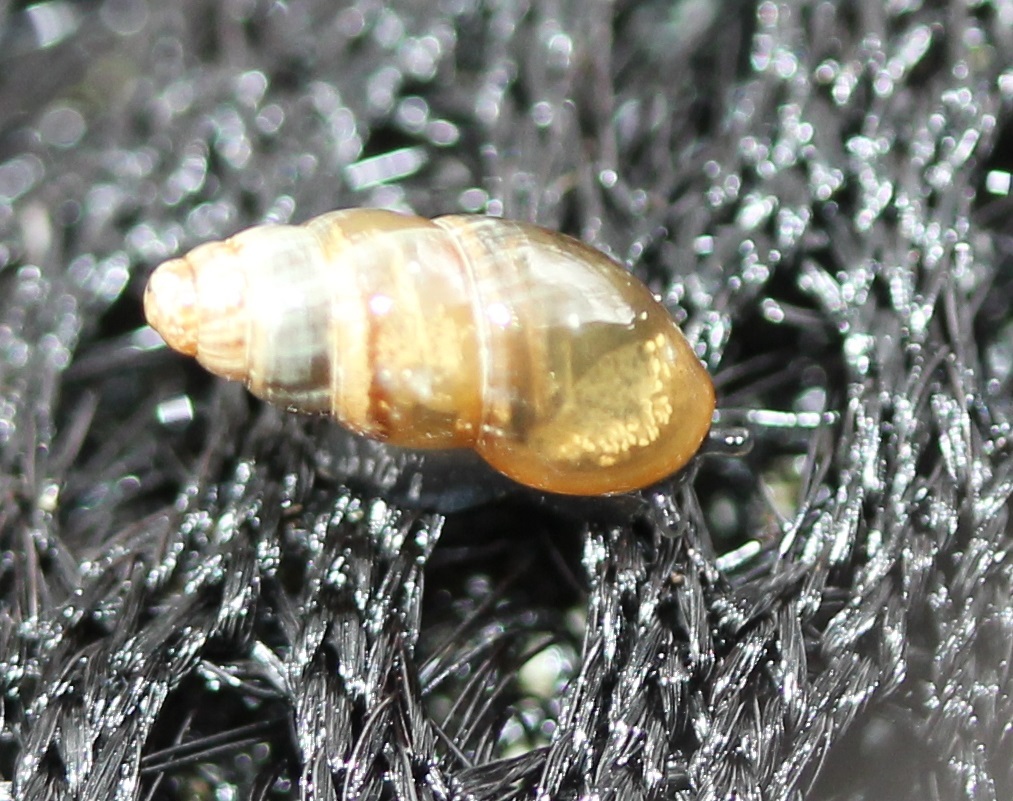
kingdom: Animalia
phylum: Mollusca
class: Gastropoda
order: Stylommatophora
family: Cochlicopidae
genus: Cochlicopa
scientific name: Cochlicopa lubrica
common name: Glossy pillar snail
